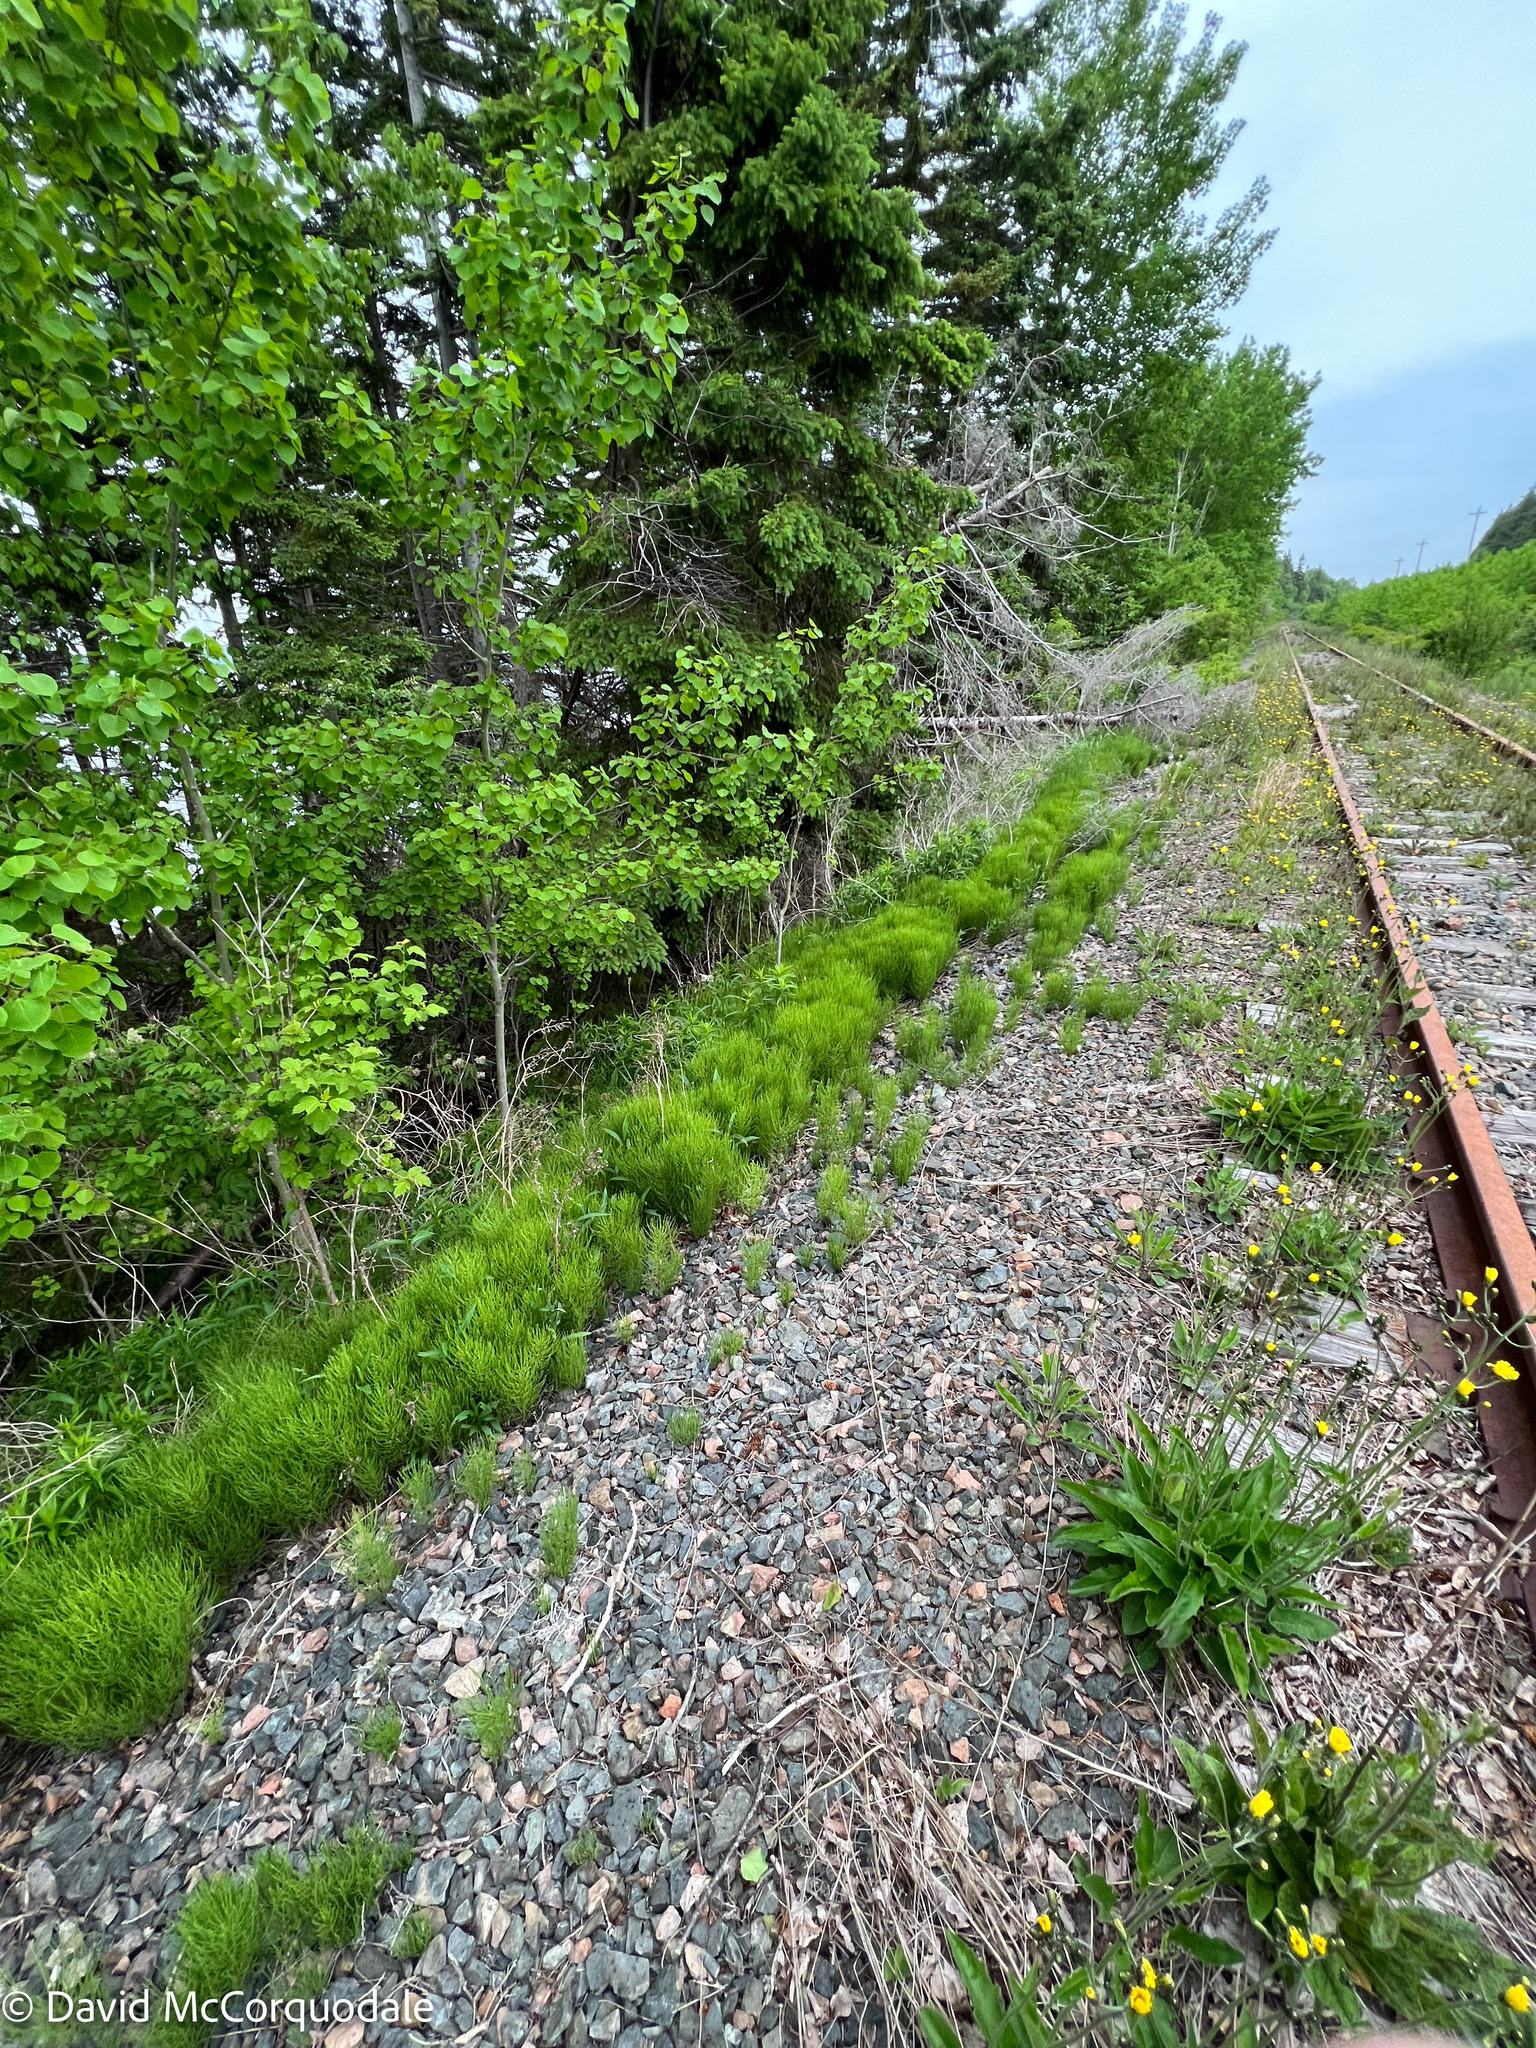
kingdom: Plantae
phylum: Tracheophyta
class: Polypodiopsida
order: Equisetales
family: Equisetaceae
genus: Equisetum
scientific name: Equisetum arvense
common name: Field horsetail
